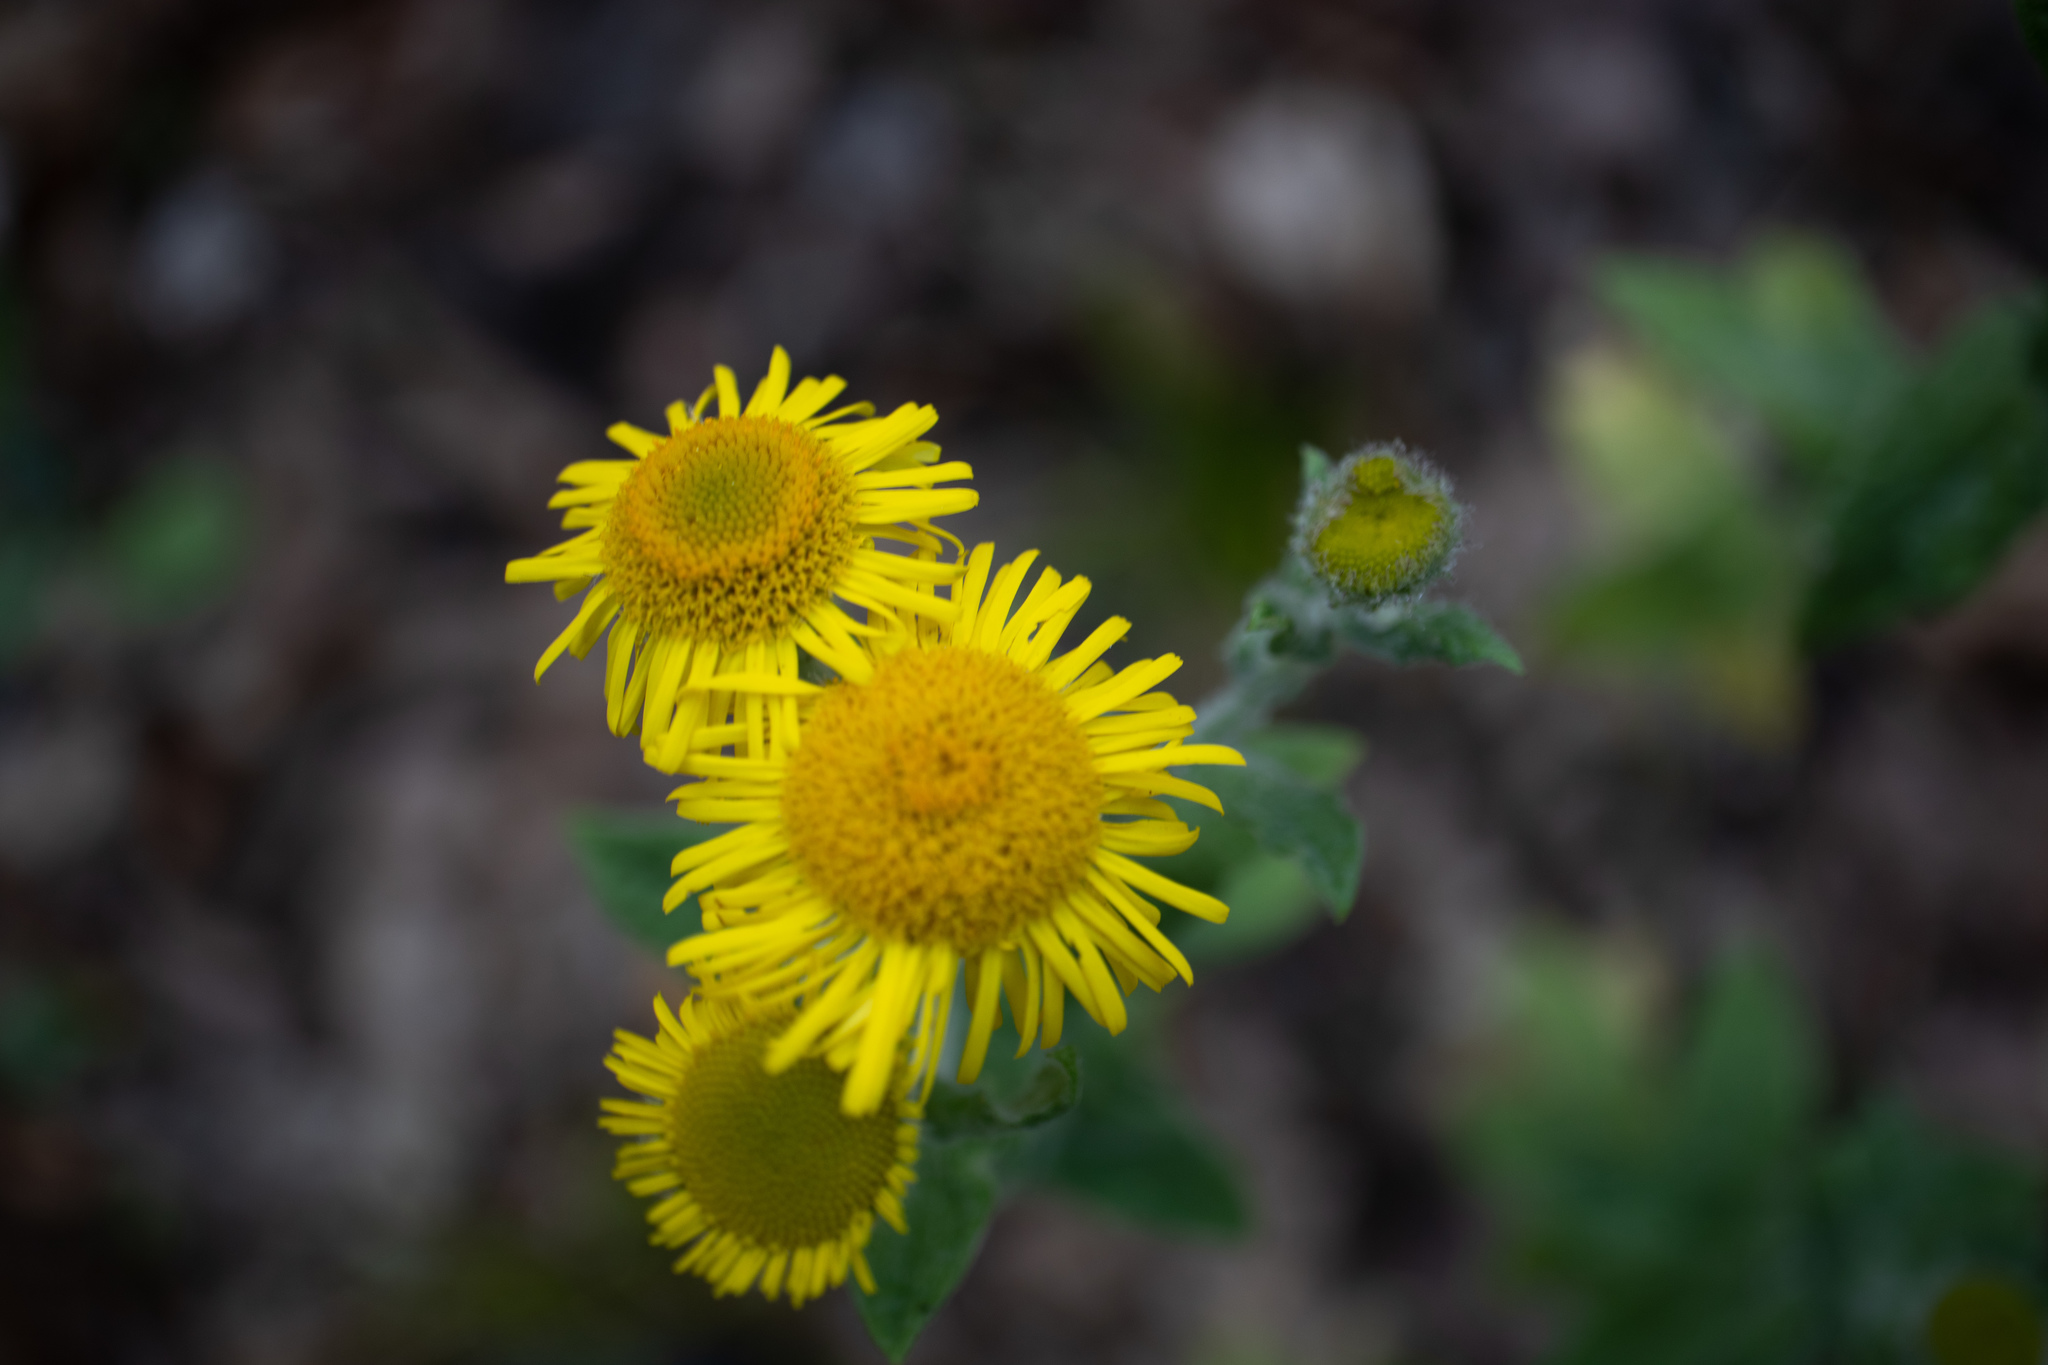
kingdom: Plantae
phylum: Tracheophyta
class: Magnoliopsida
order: Asterales
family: Asteraceae
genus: Pulicaria
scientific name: Pulicaria dysenterica
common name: Common fleabane
